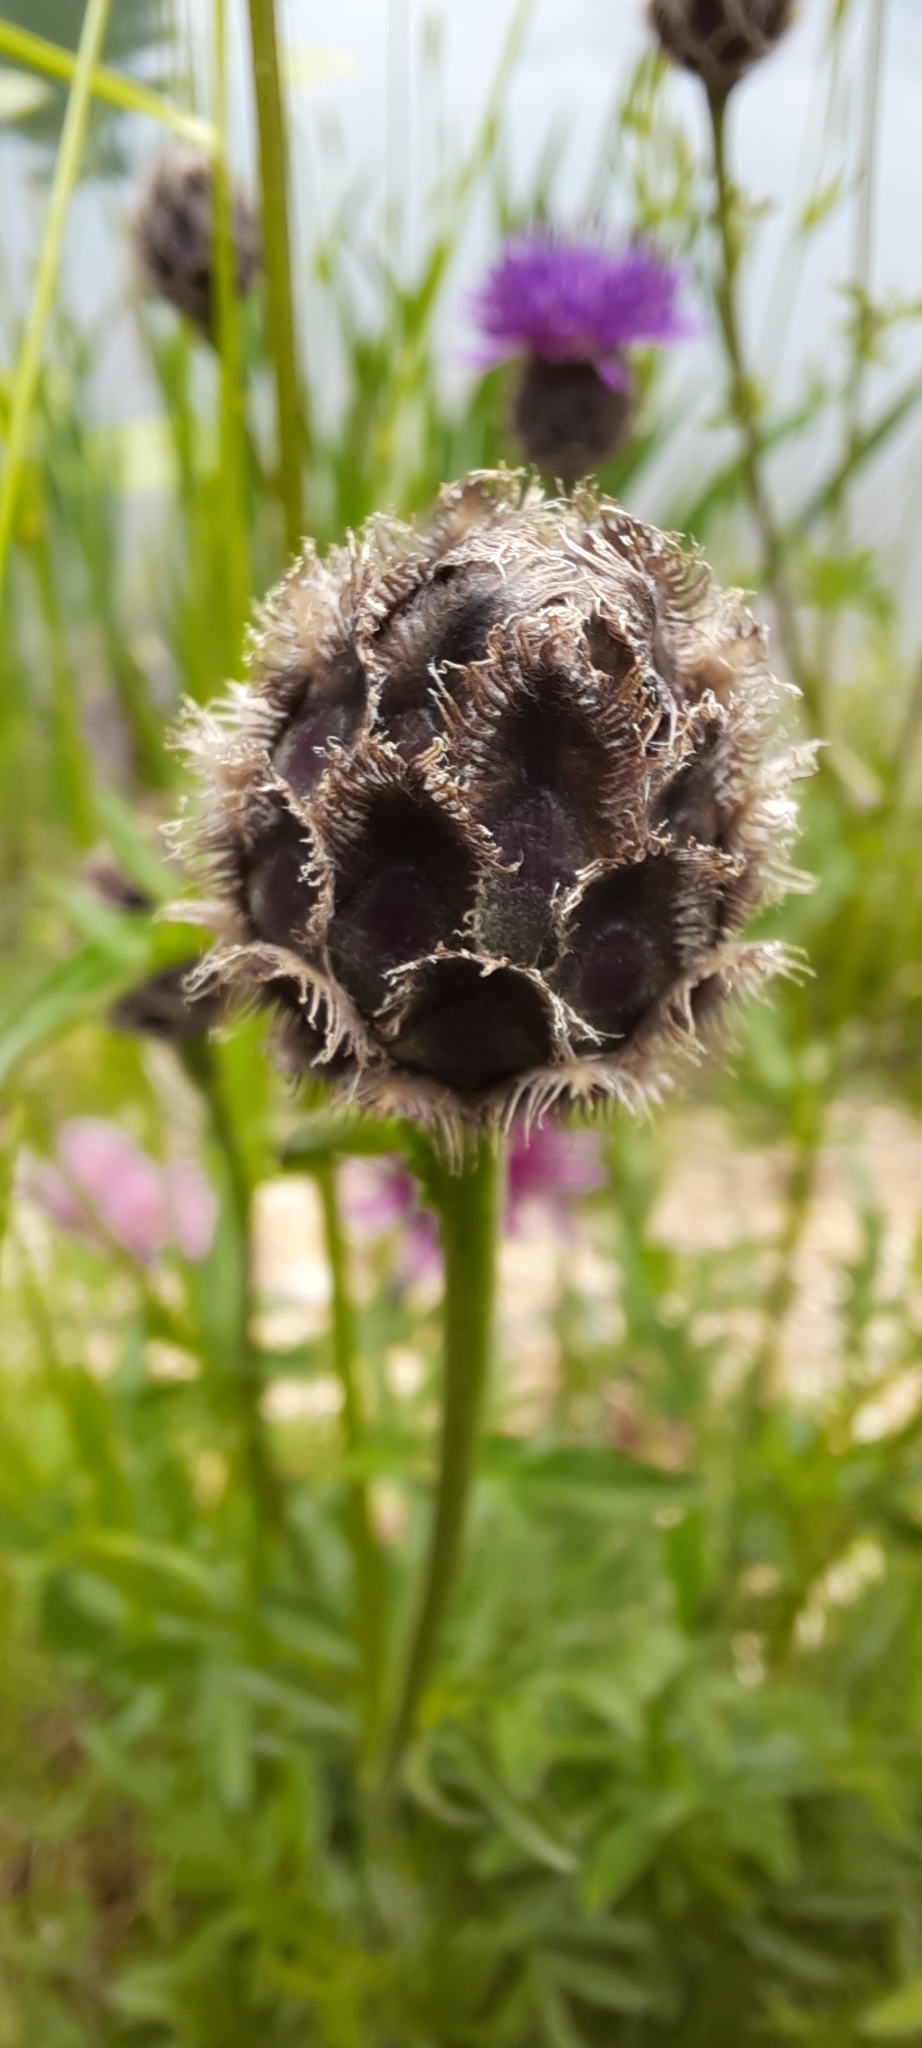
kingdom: Plantae
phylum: Tracheophyta
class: Magnoliopsida
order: Asterales
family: Asteraceae
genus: Centaurea
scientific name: Centaurea scabiosa
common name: Greater knapweed
